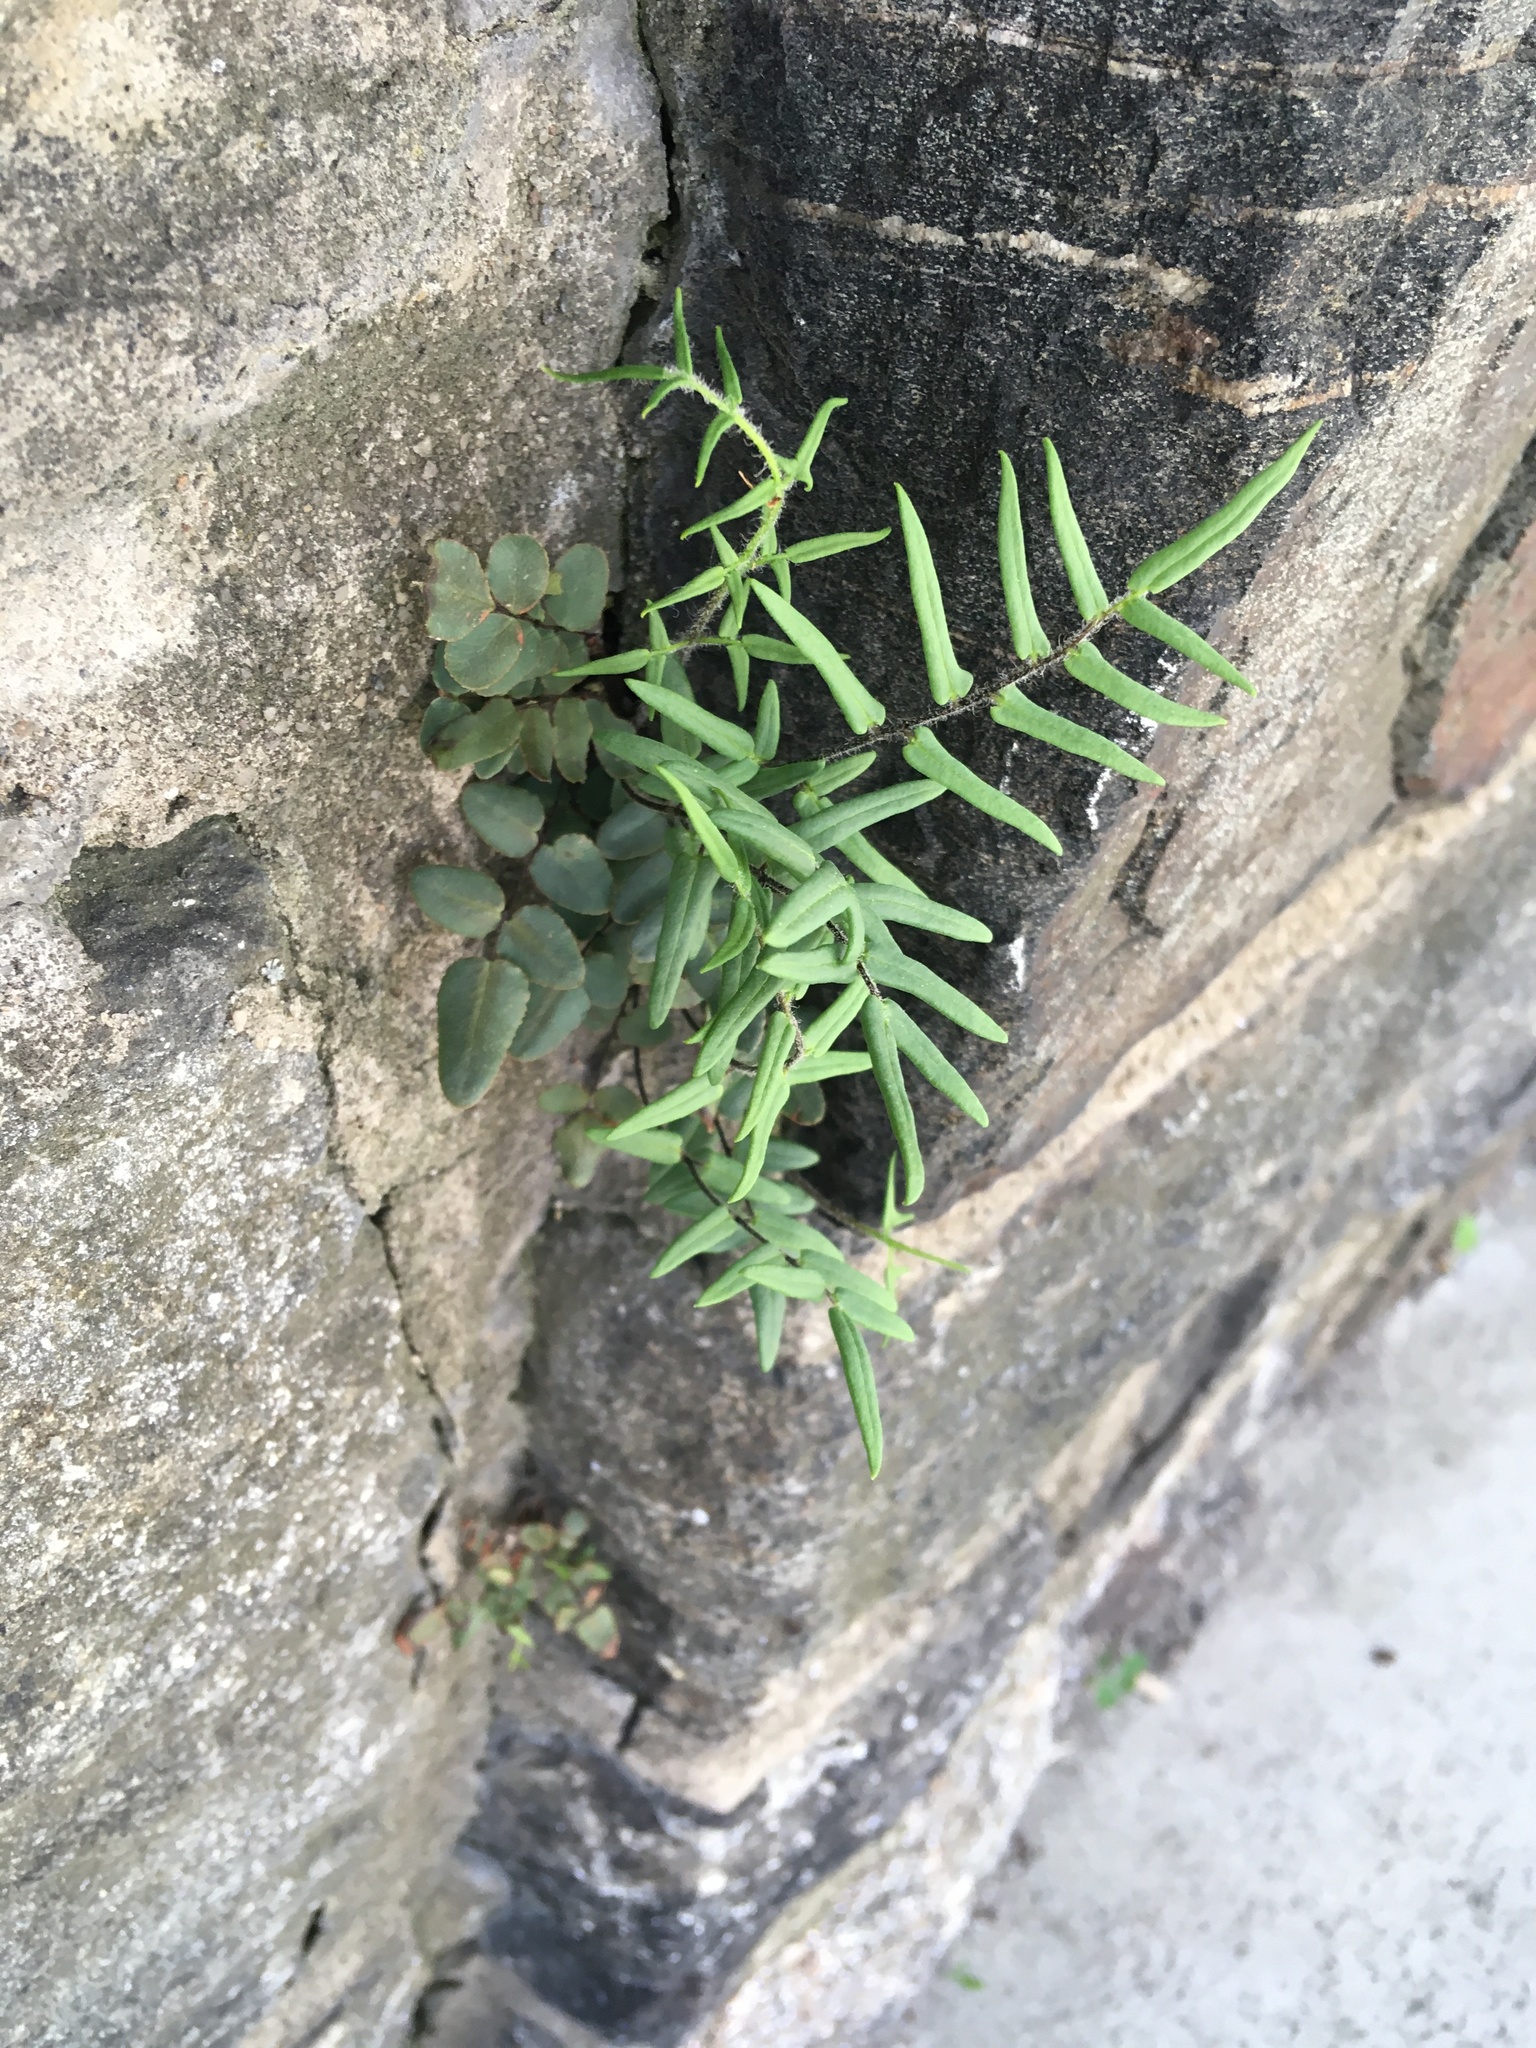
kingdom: Plantae
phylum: Tracheophyta
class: Polypodiopsida
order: Polypodiales
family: Pteridaceae
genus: Pellaea
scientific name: Pellaea atropurpurea
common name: Hairy cliffbrake
